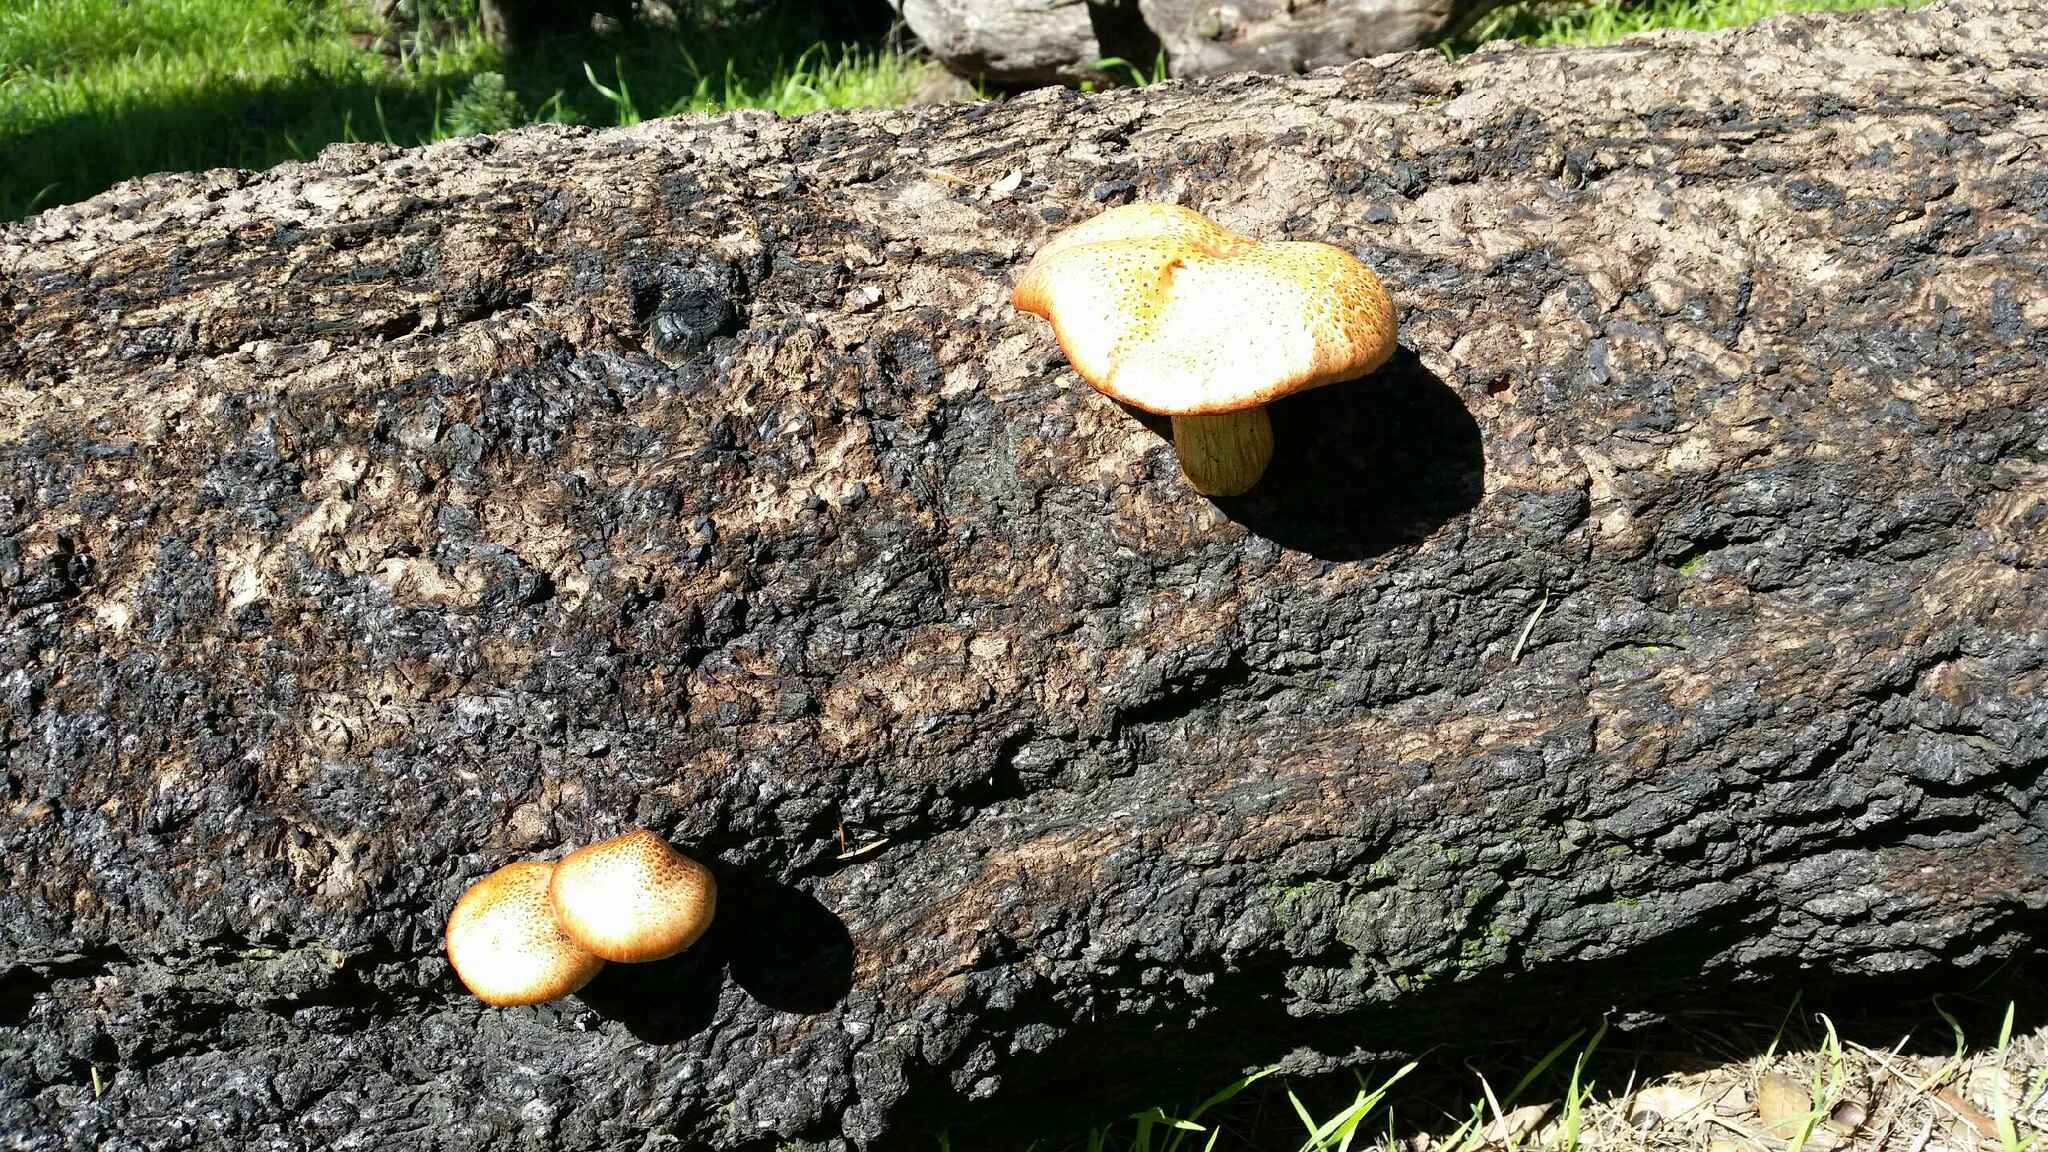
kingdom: Fungi
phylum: Basidiomycota
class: Agaricomycetes
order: Agaricales
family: Hymenogastraceae
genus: Gymnopilus
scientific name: Gymnopilus luteofolius
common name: Yellow-gilled gymnopilus
